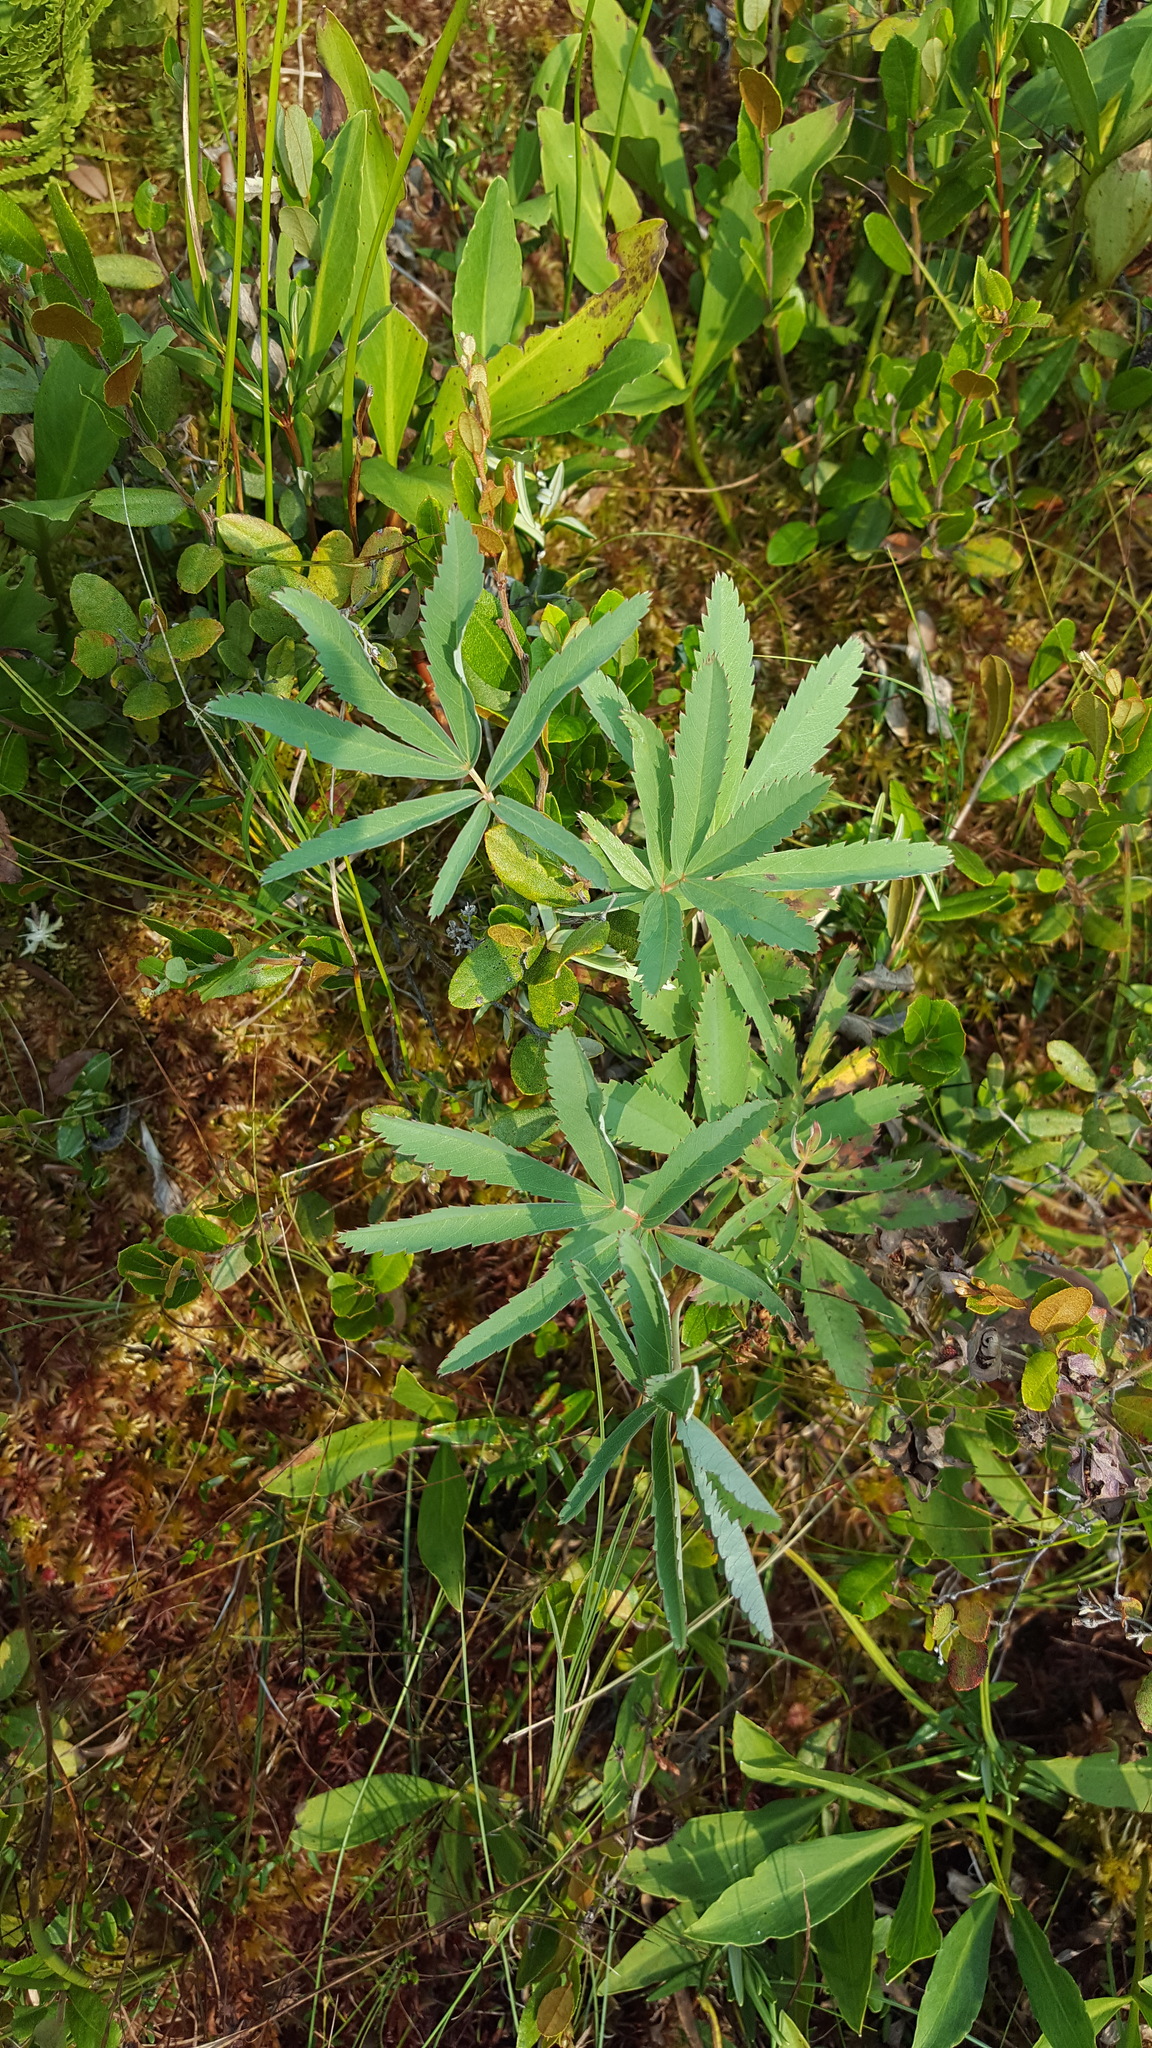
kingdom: Plantae
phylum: Tracheophyta
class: Magnoliopsida
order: Rosales
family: Rosaceae
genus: Comarum
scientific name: Comarum palustre
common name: Marsh cinquefoil
